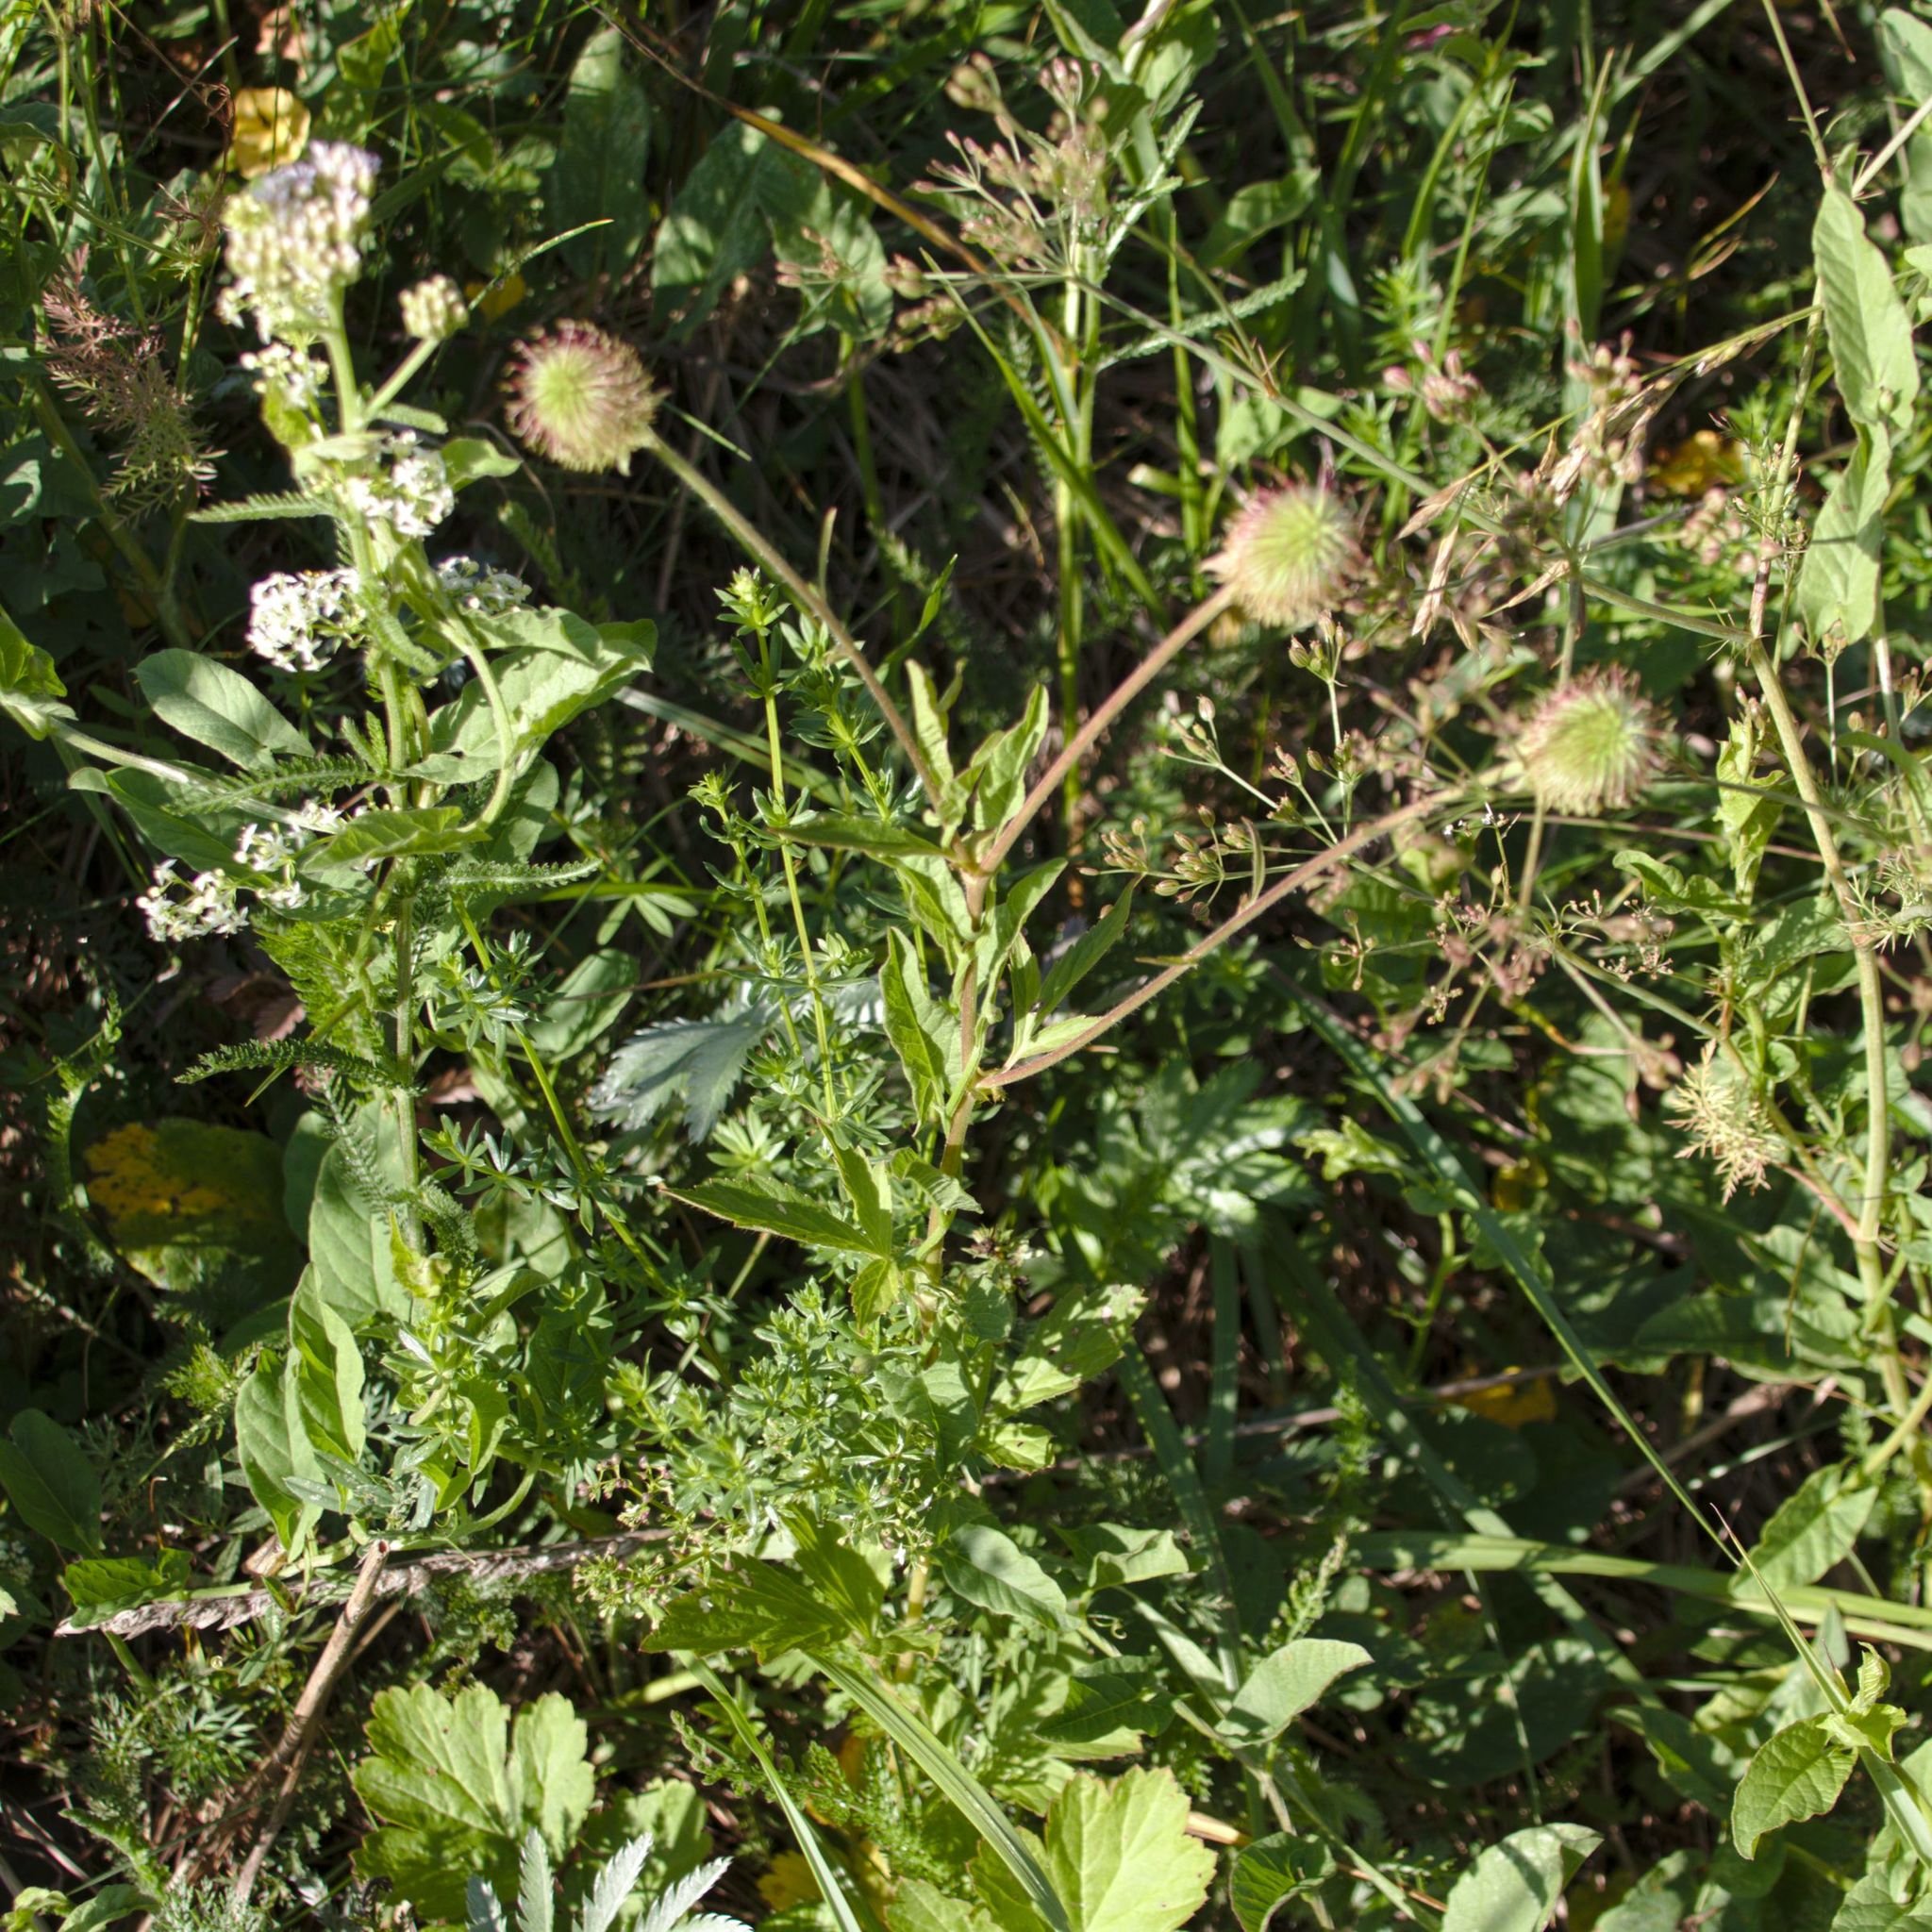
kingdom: Plantae
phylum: Tracheophyta
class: Magnoliopsida
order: Rosales
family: Rosaceae
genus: Geum
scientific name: Geum aleppicum
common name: Yellow avens
